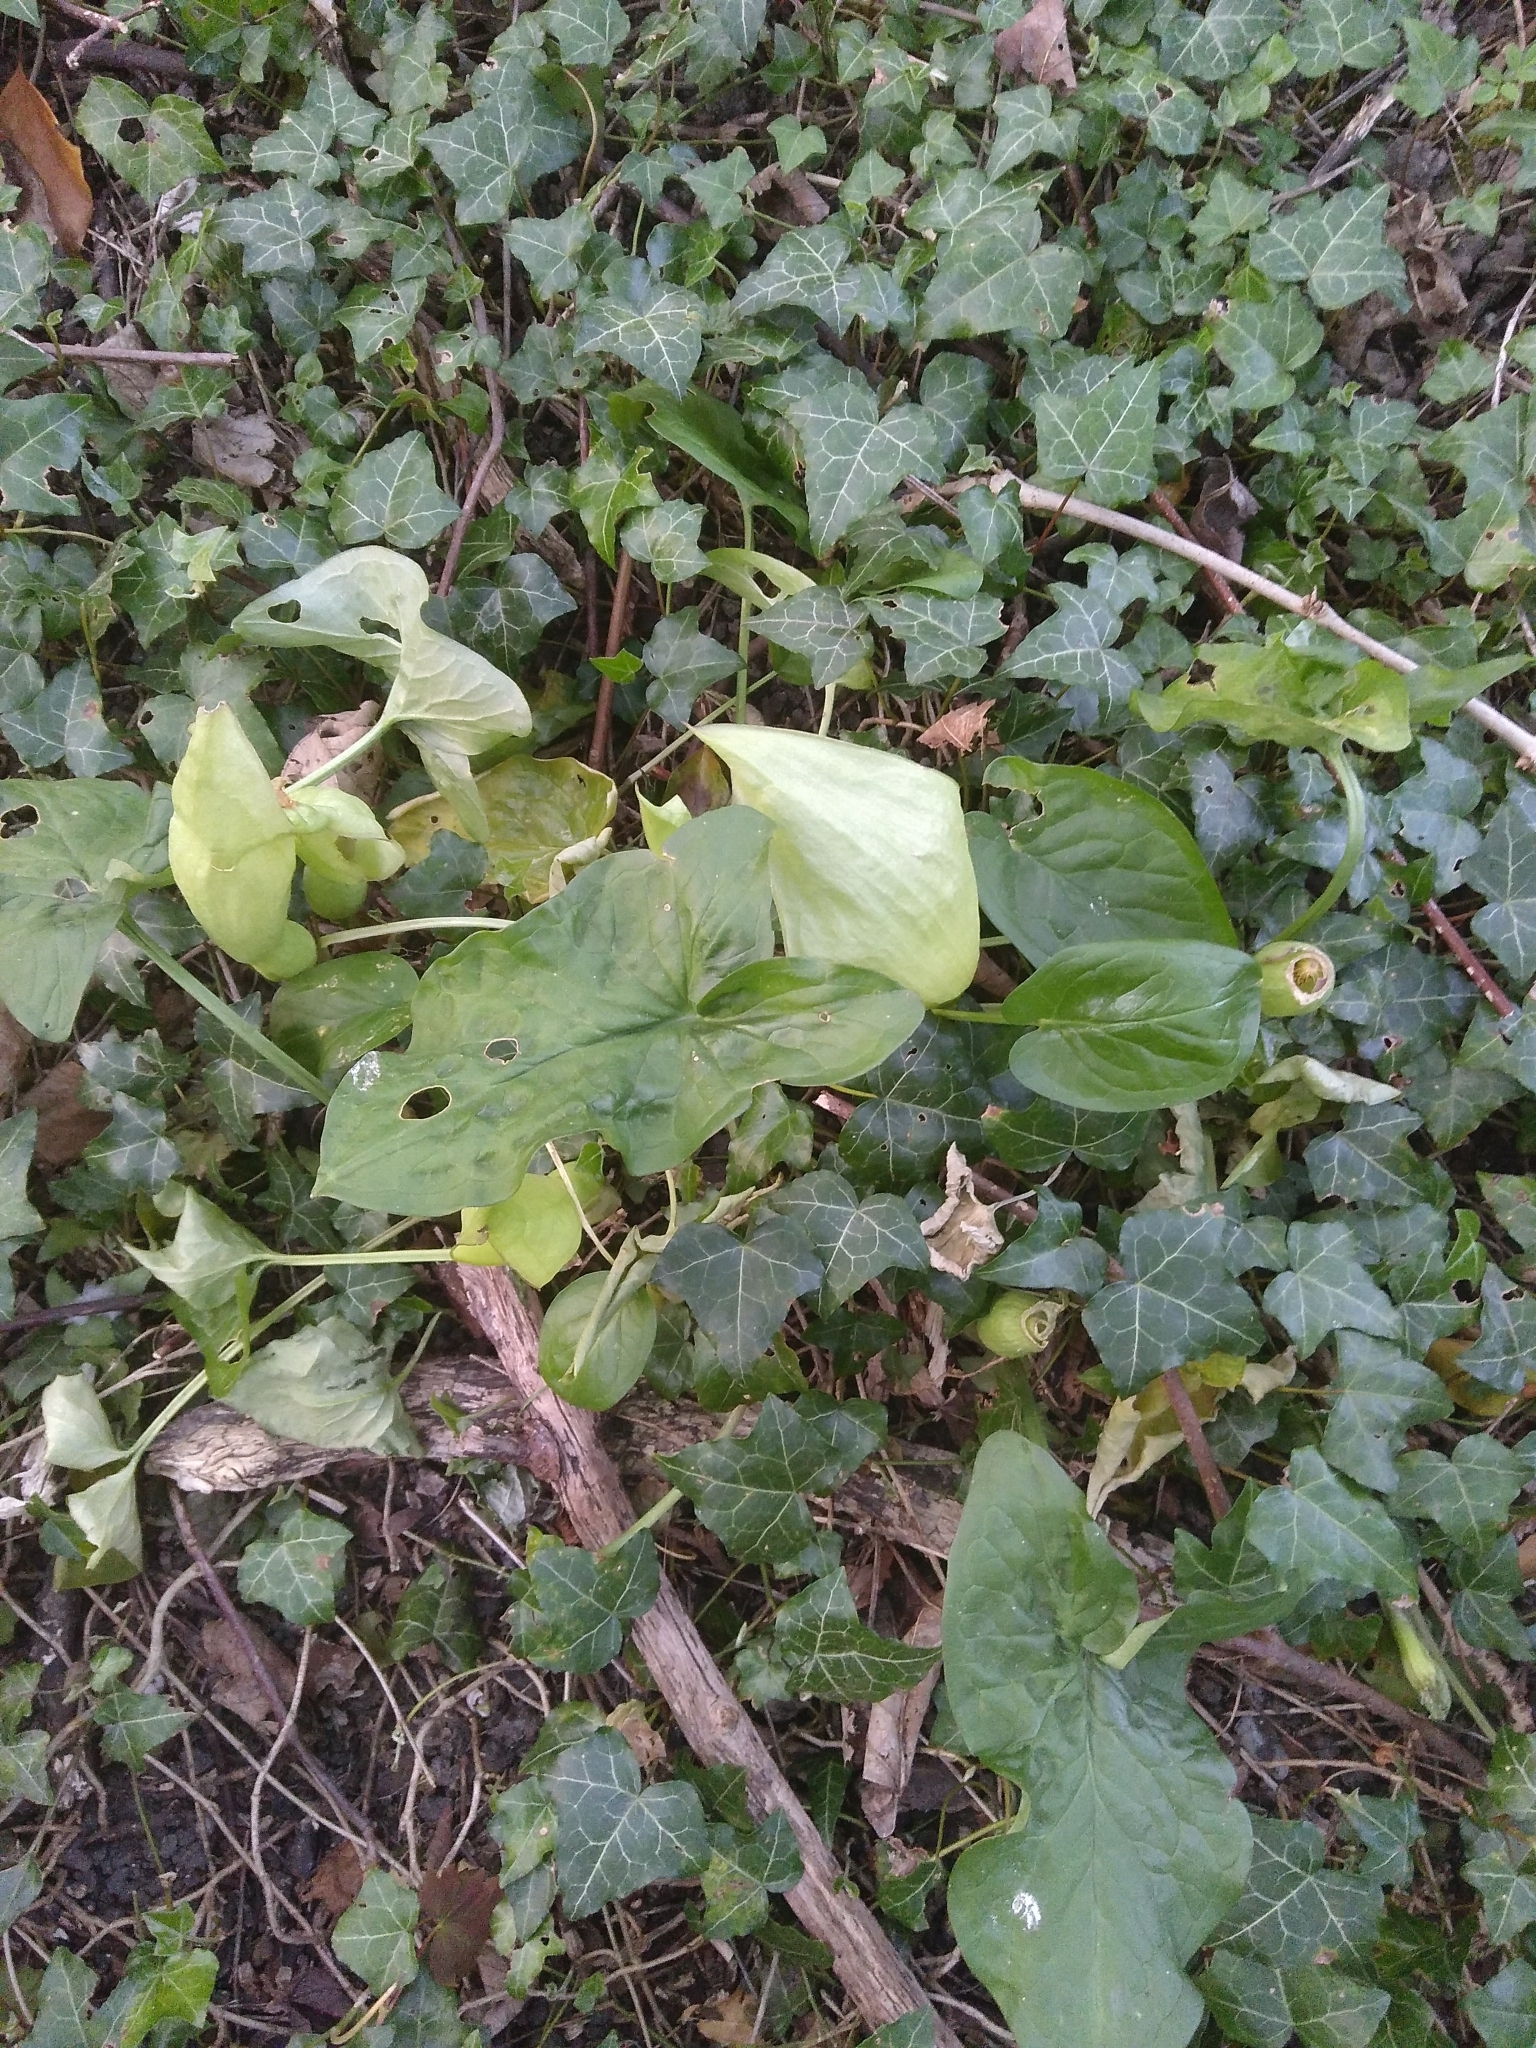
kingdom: Plantae
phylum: Tracheophyta
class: Liliopsida
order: Alismatales
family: Araceae
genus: Arum
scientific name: Arum maculatum
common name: Lords-and-ladies
